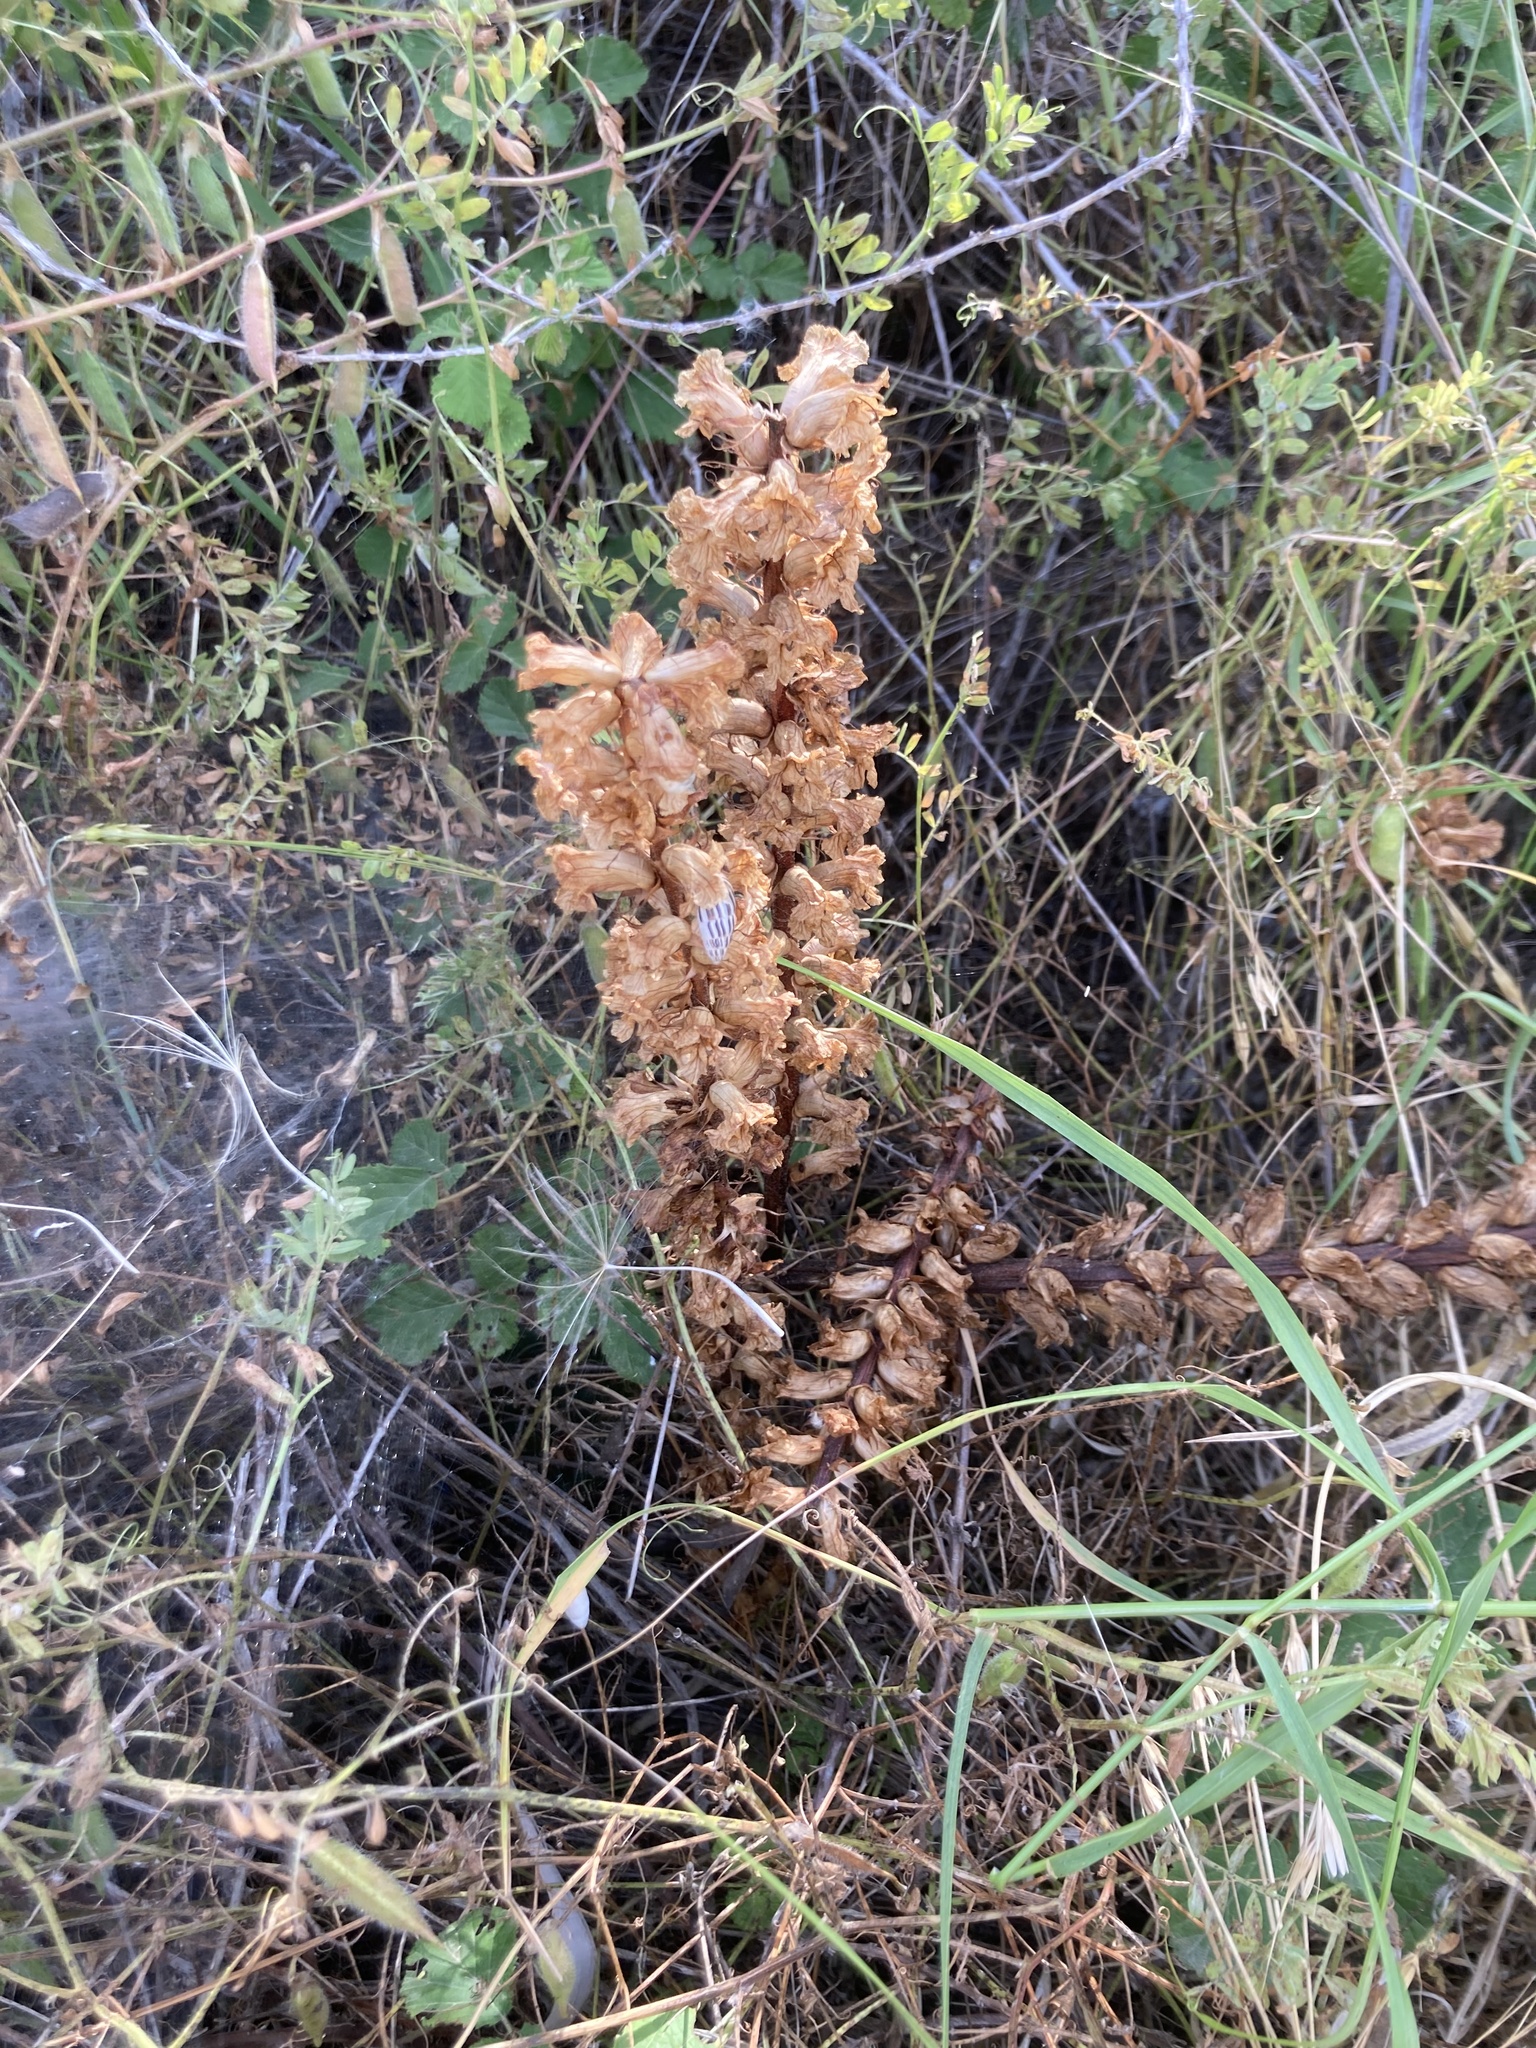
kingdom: Animalia
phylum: Mollusca
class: Gastropoda
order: Stylommatophora
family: Enidae
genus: Zebrina
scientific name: Zebrina fasciolata
